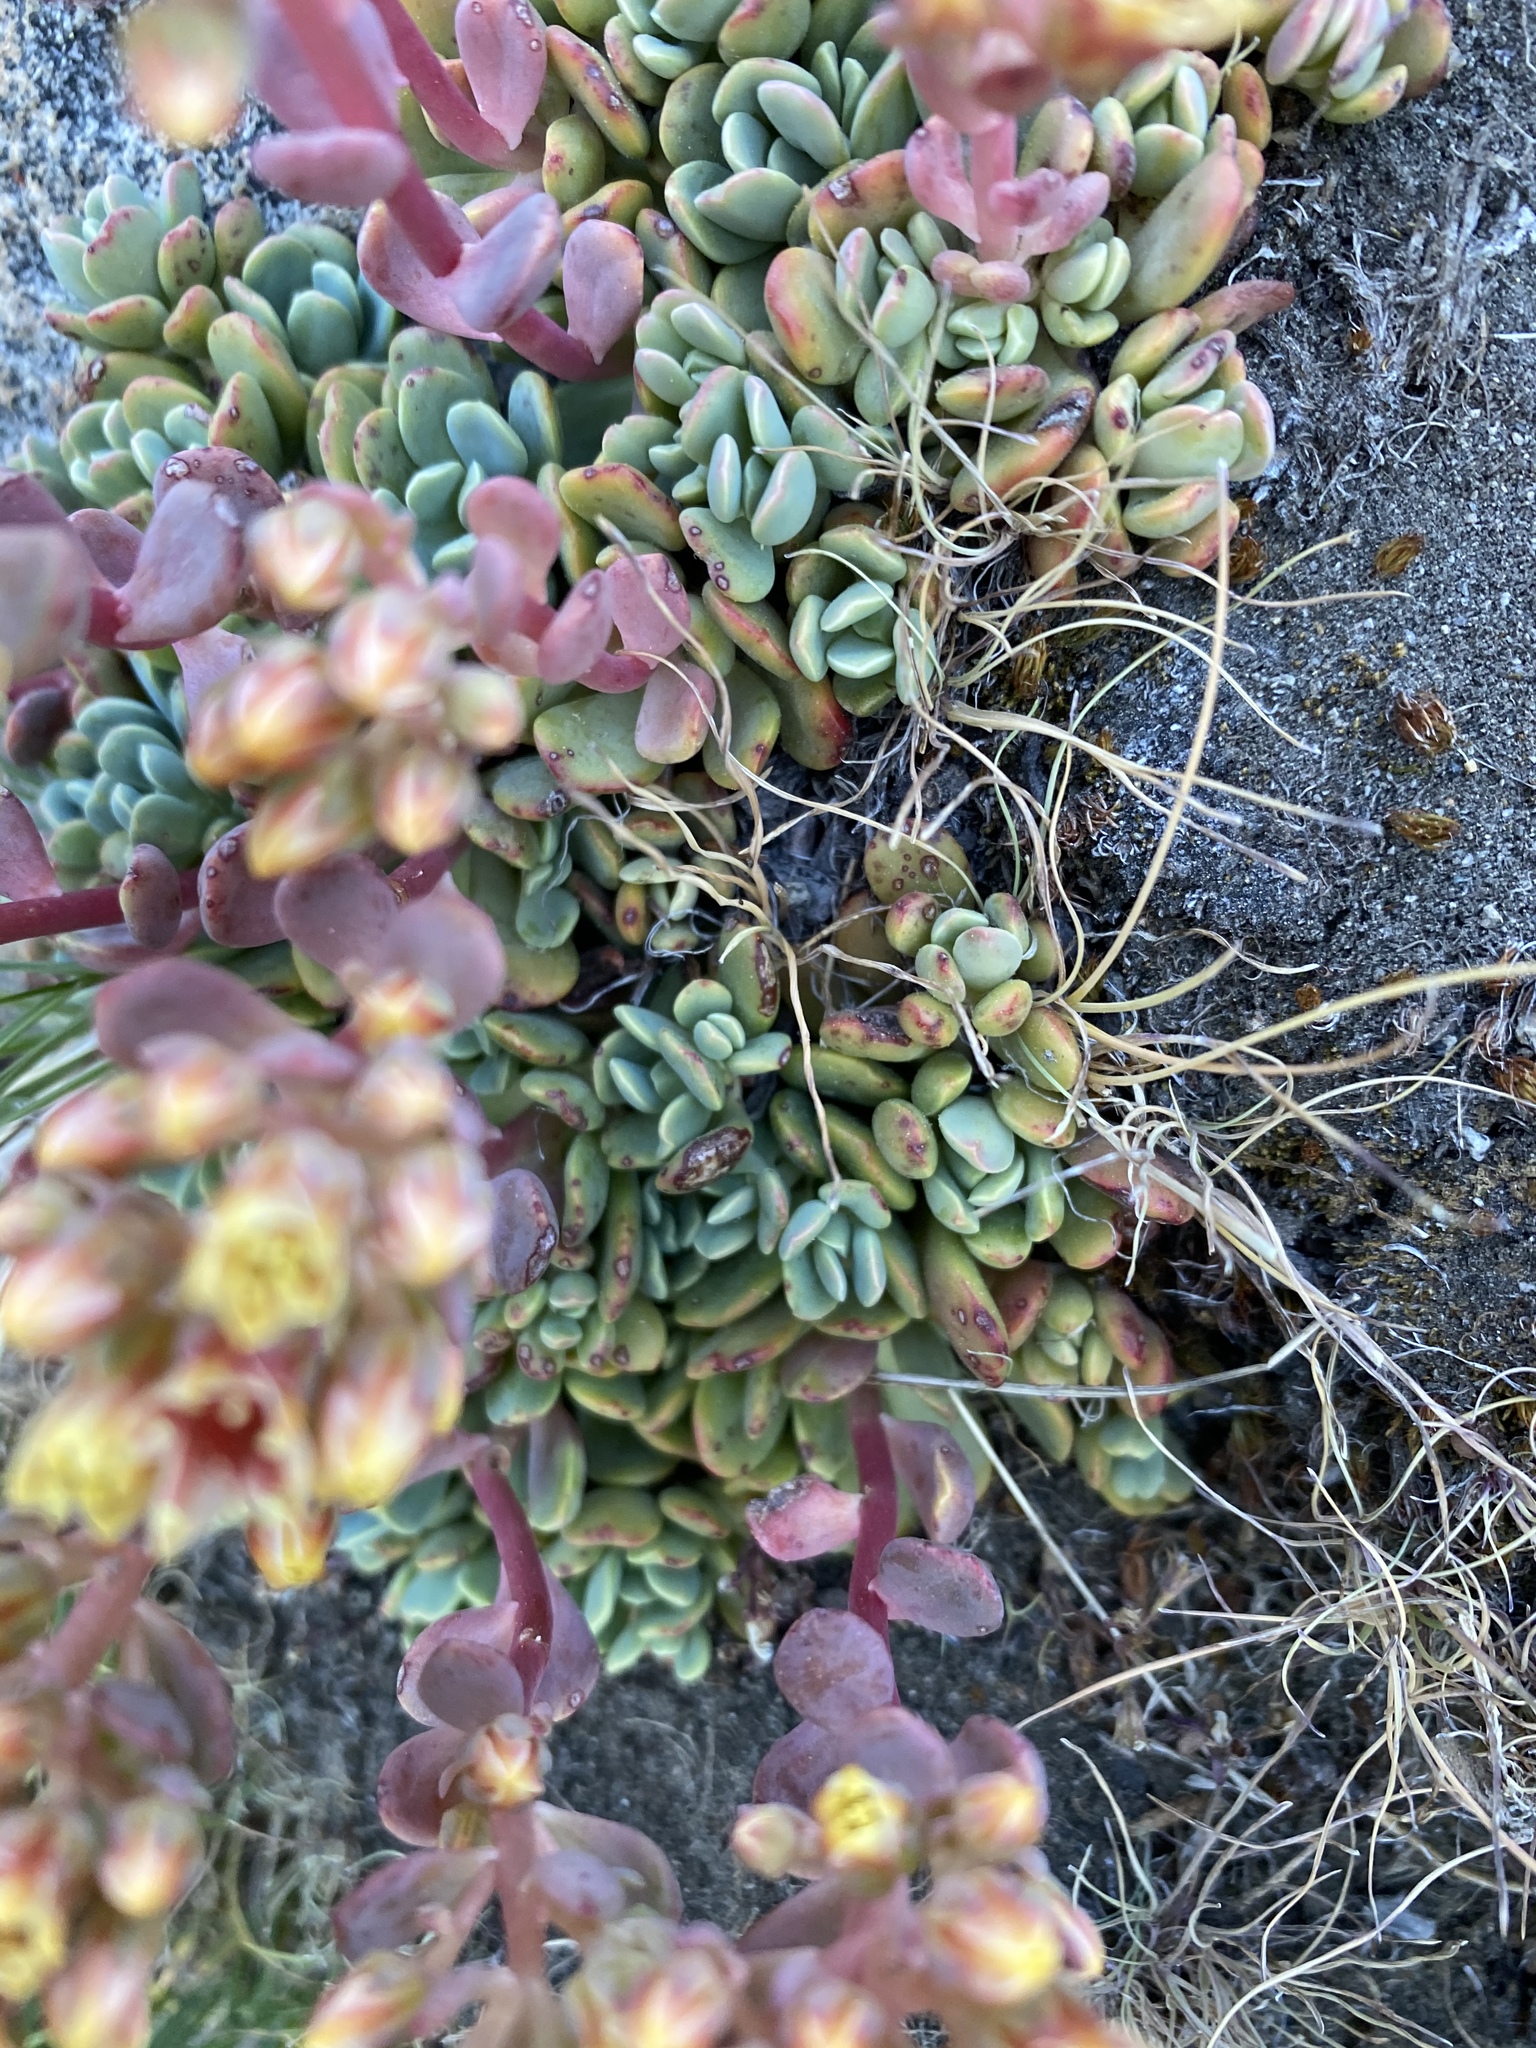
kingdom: Plantae
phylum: Tracheophyta
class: Magnoliopsida
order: Saxifragales
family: Crassulaceae
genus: Sedum
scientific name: Sedum obtusatum
